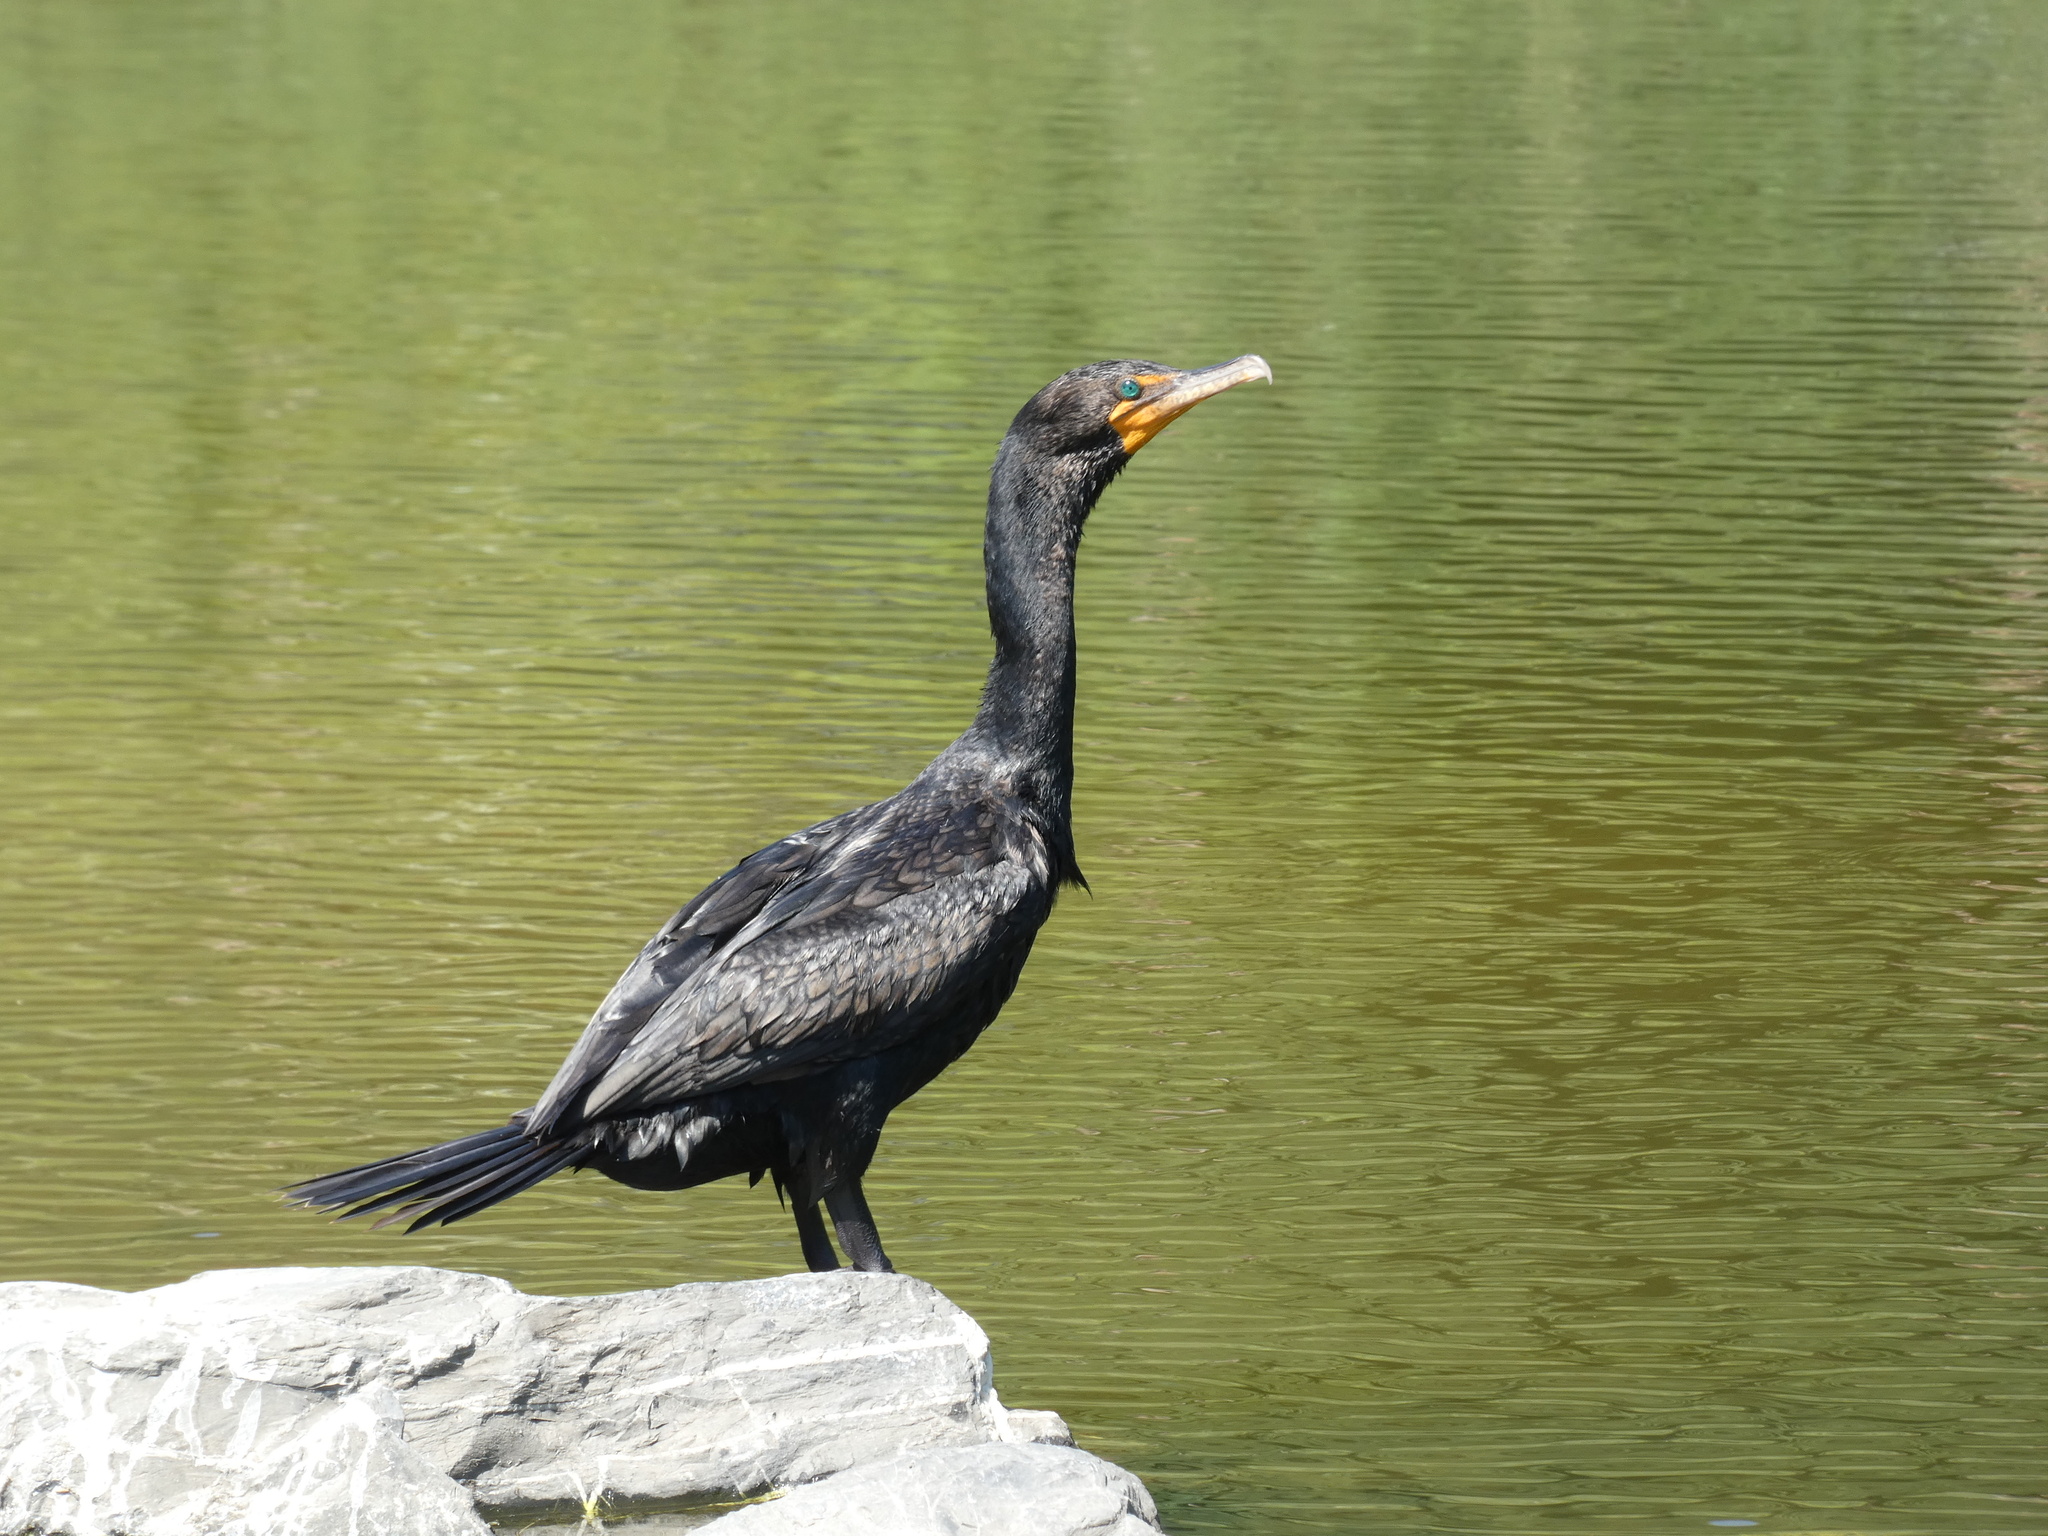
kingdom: Animalia
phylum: Chordata
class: Aves
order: Suliformes
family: Phalacrocoracidae
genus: Phalacrocorax
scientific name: Phalacrocorax auritus
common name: Double-crested cormorant
